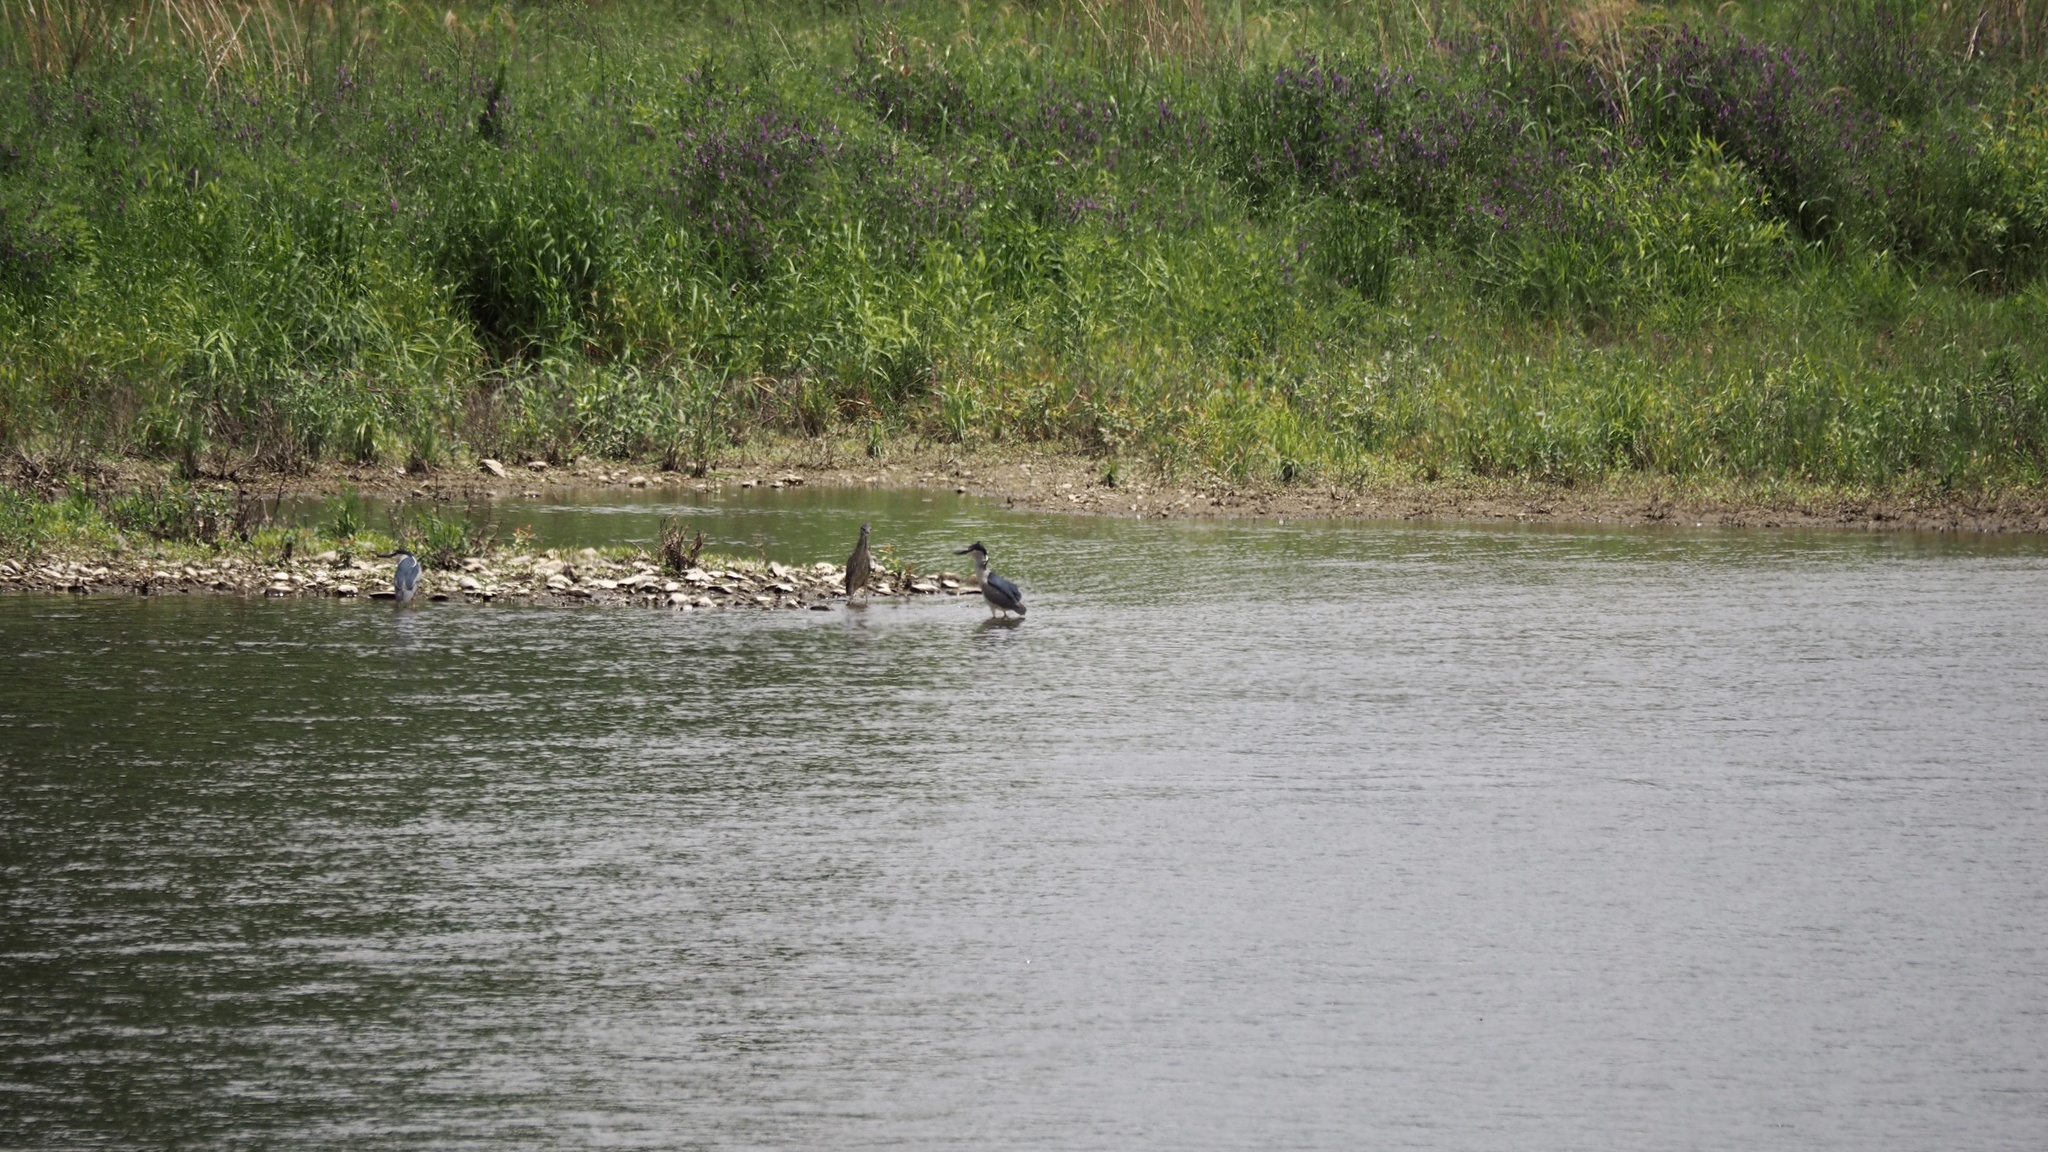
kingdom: Animalia
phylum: Chordata
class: Aves
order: Pelecaniformes
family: Ardeidae
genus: Nycticorax
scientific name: Nycticorax nycticorax
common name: Black-crowned night heron
